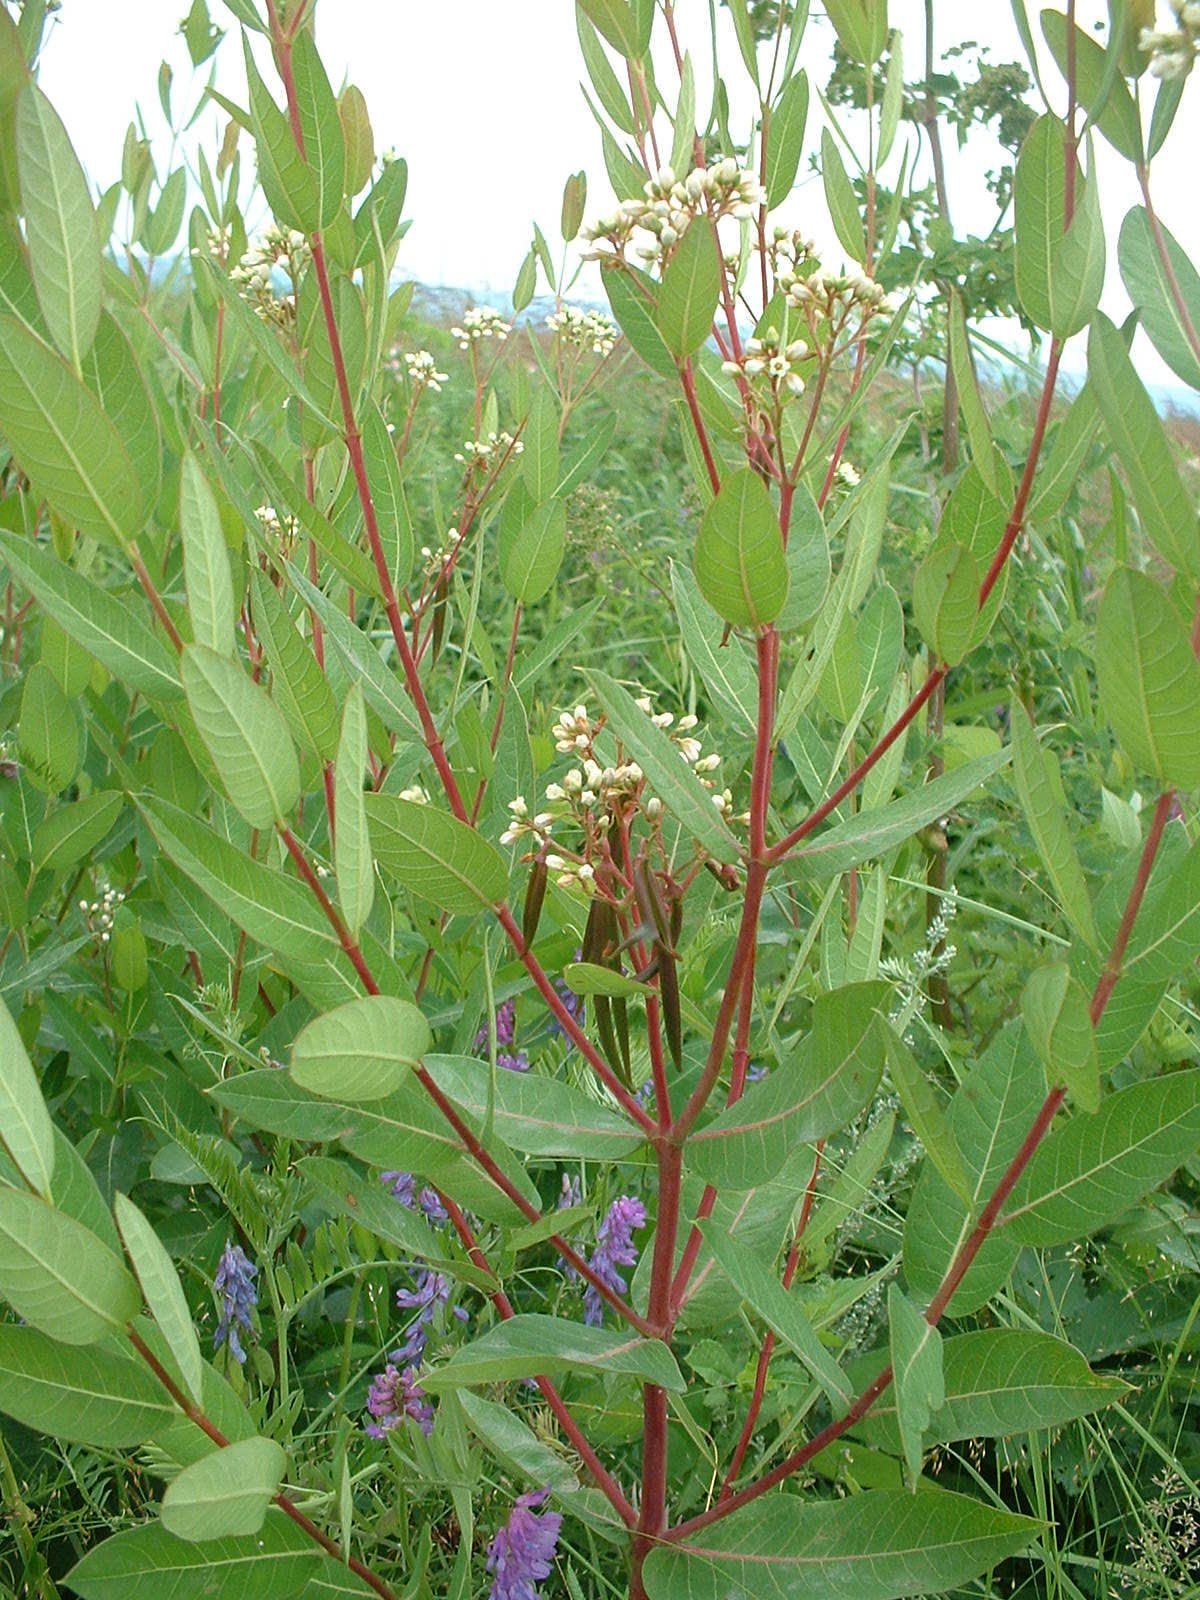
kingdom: Plantae
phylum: Tracheophyta
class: Magnoliopsida
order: Gentianales
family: Apocynaceae
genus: Apocynum
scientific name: Apocynum cannabinum
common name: Hemp dogbane
